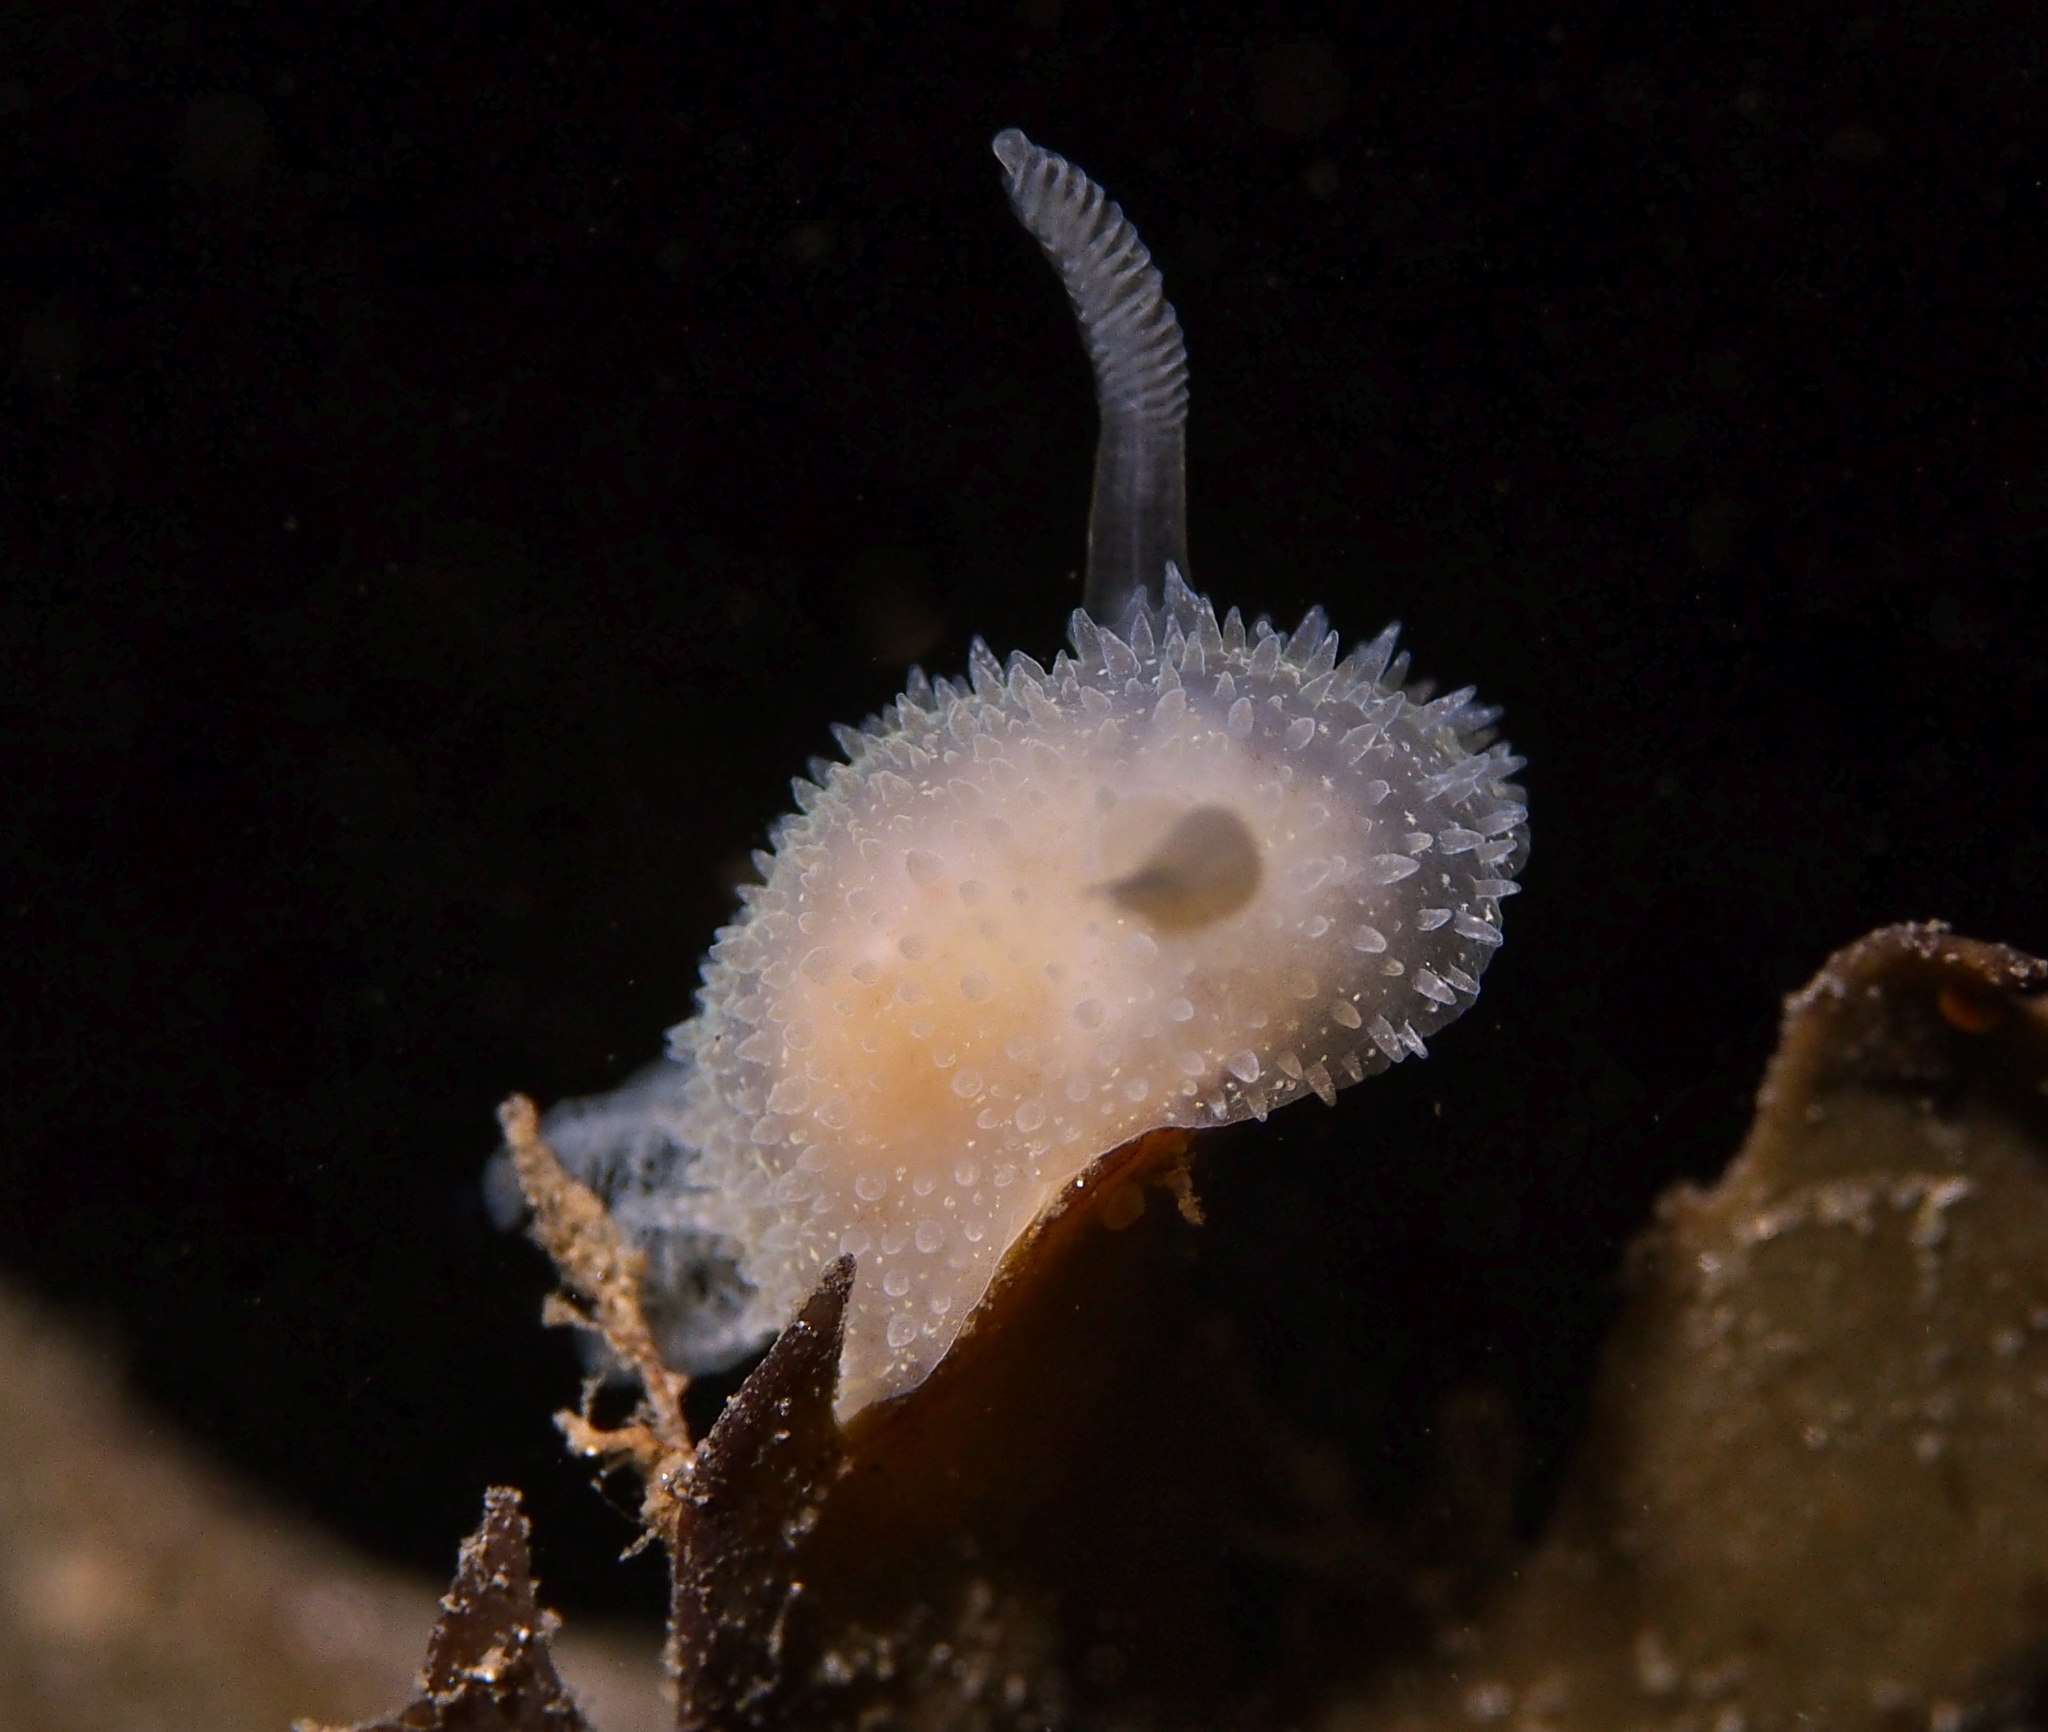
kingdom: Animalia
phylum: Mollusca
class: Gastropoda
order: Nudibranchia
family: Onchidorididae
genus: Acanthodoris
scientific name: Acanthodoris pilosa
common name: Hairy spiny doris
